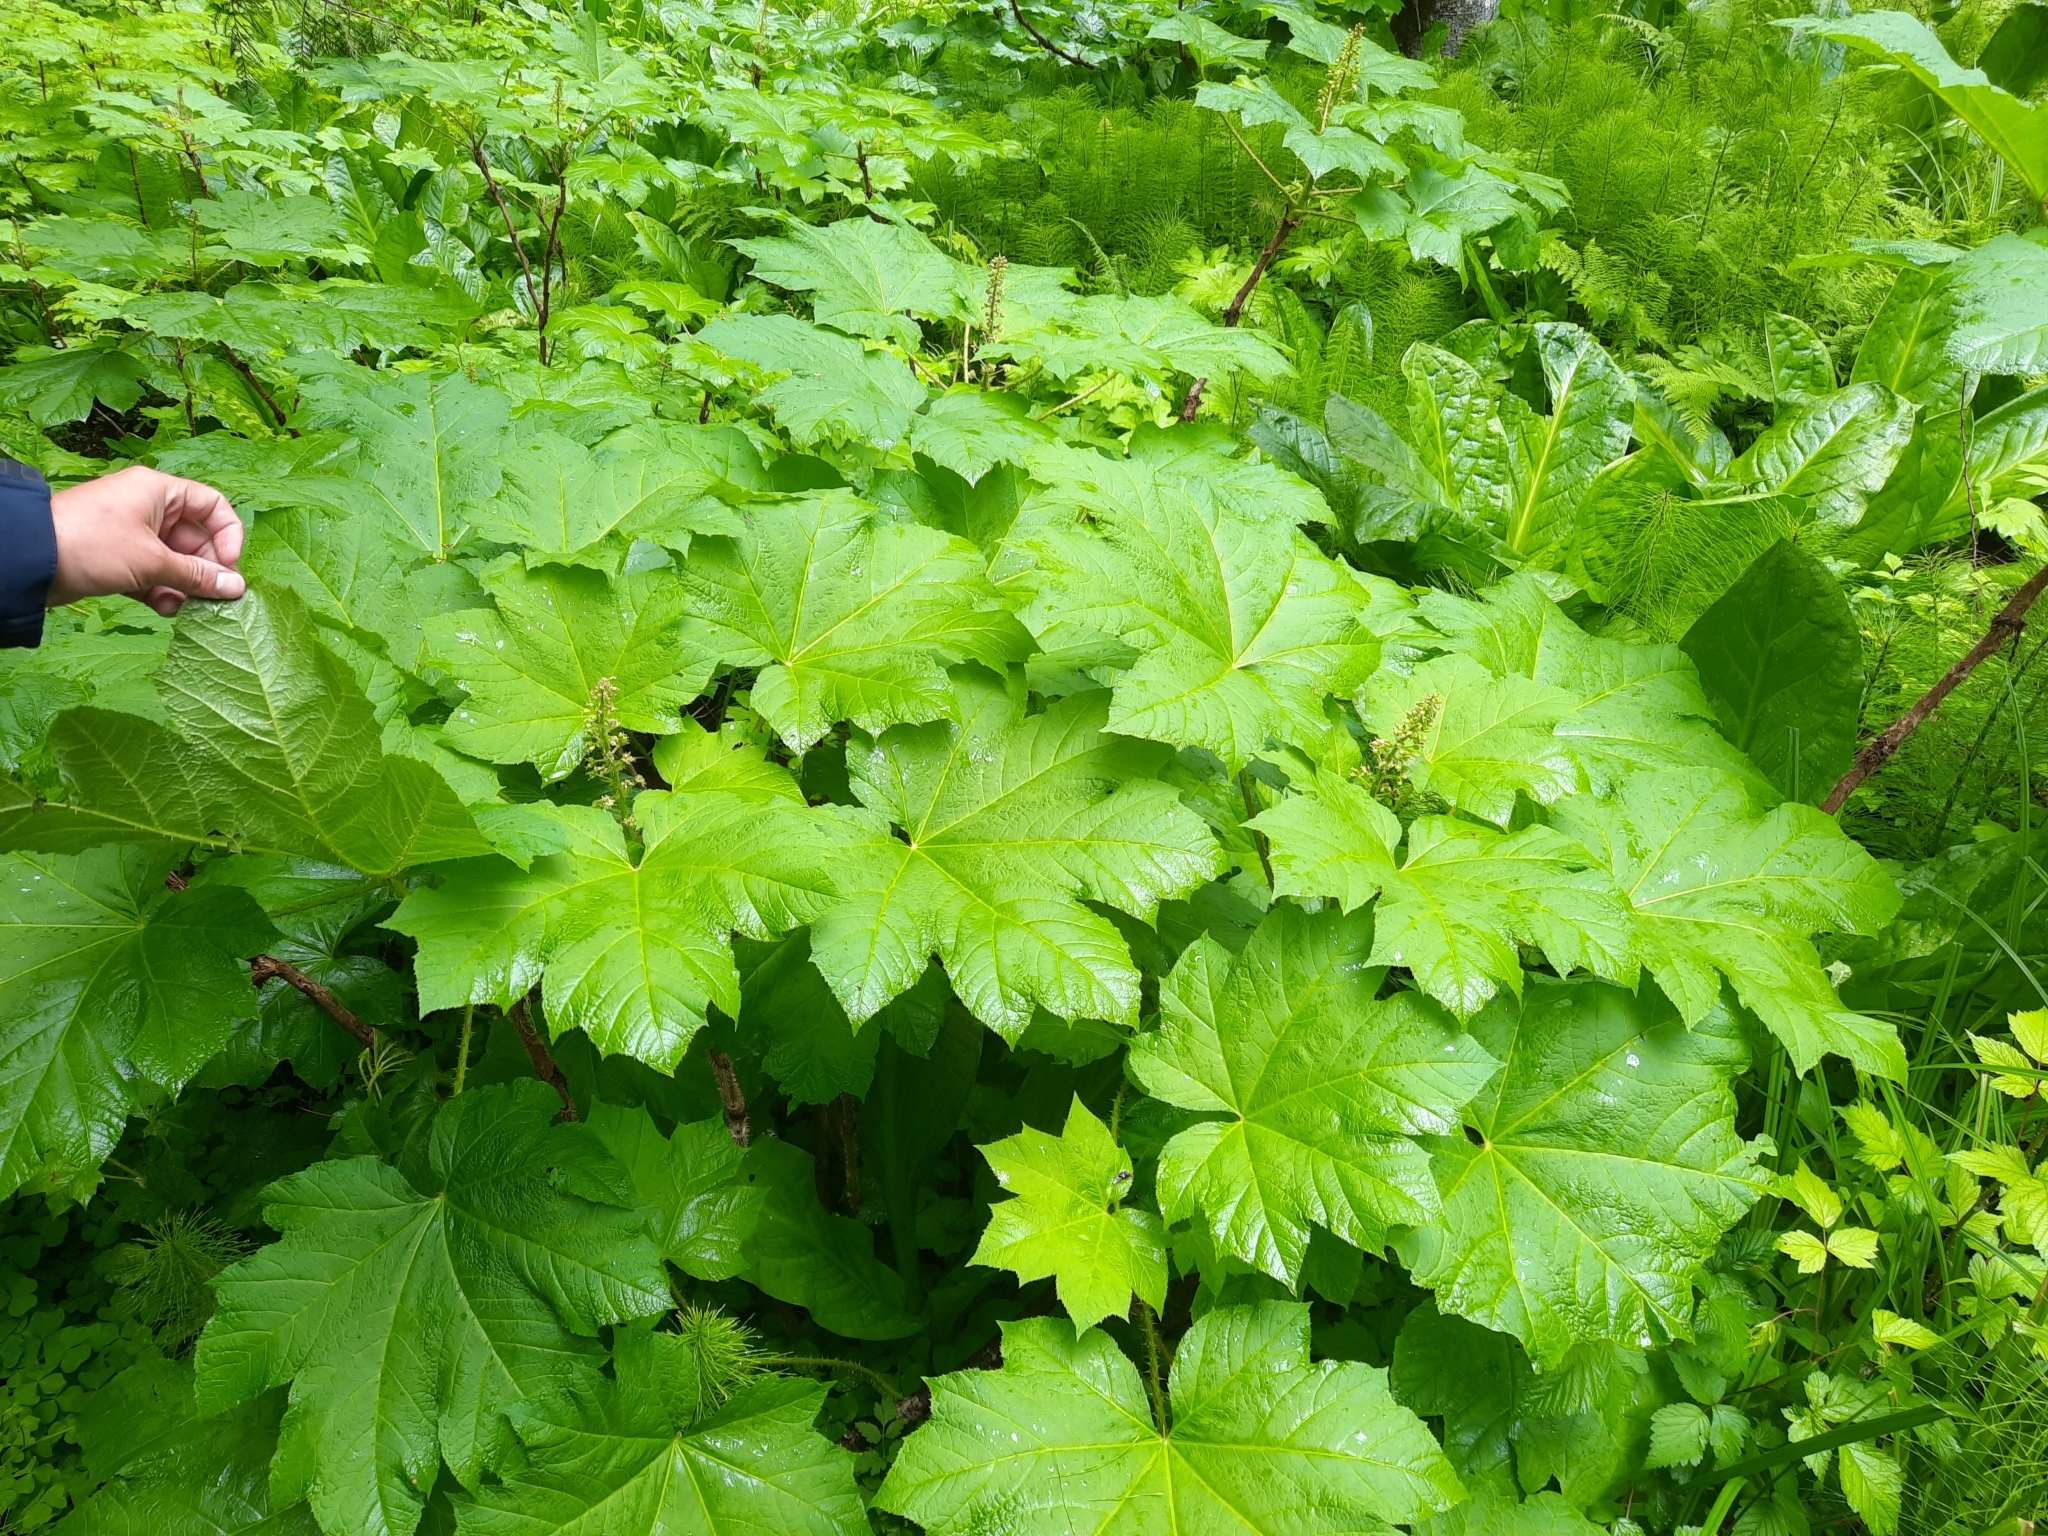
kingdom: Plantae
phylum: Tracheophyta
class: Magnoliopsida
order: Apiales
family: Araliaceae
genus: Oplopanax
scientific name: Oplopanax horridus
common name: Devil's walking-stick
